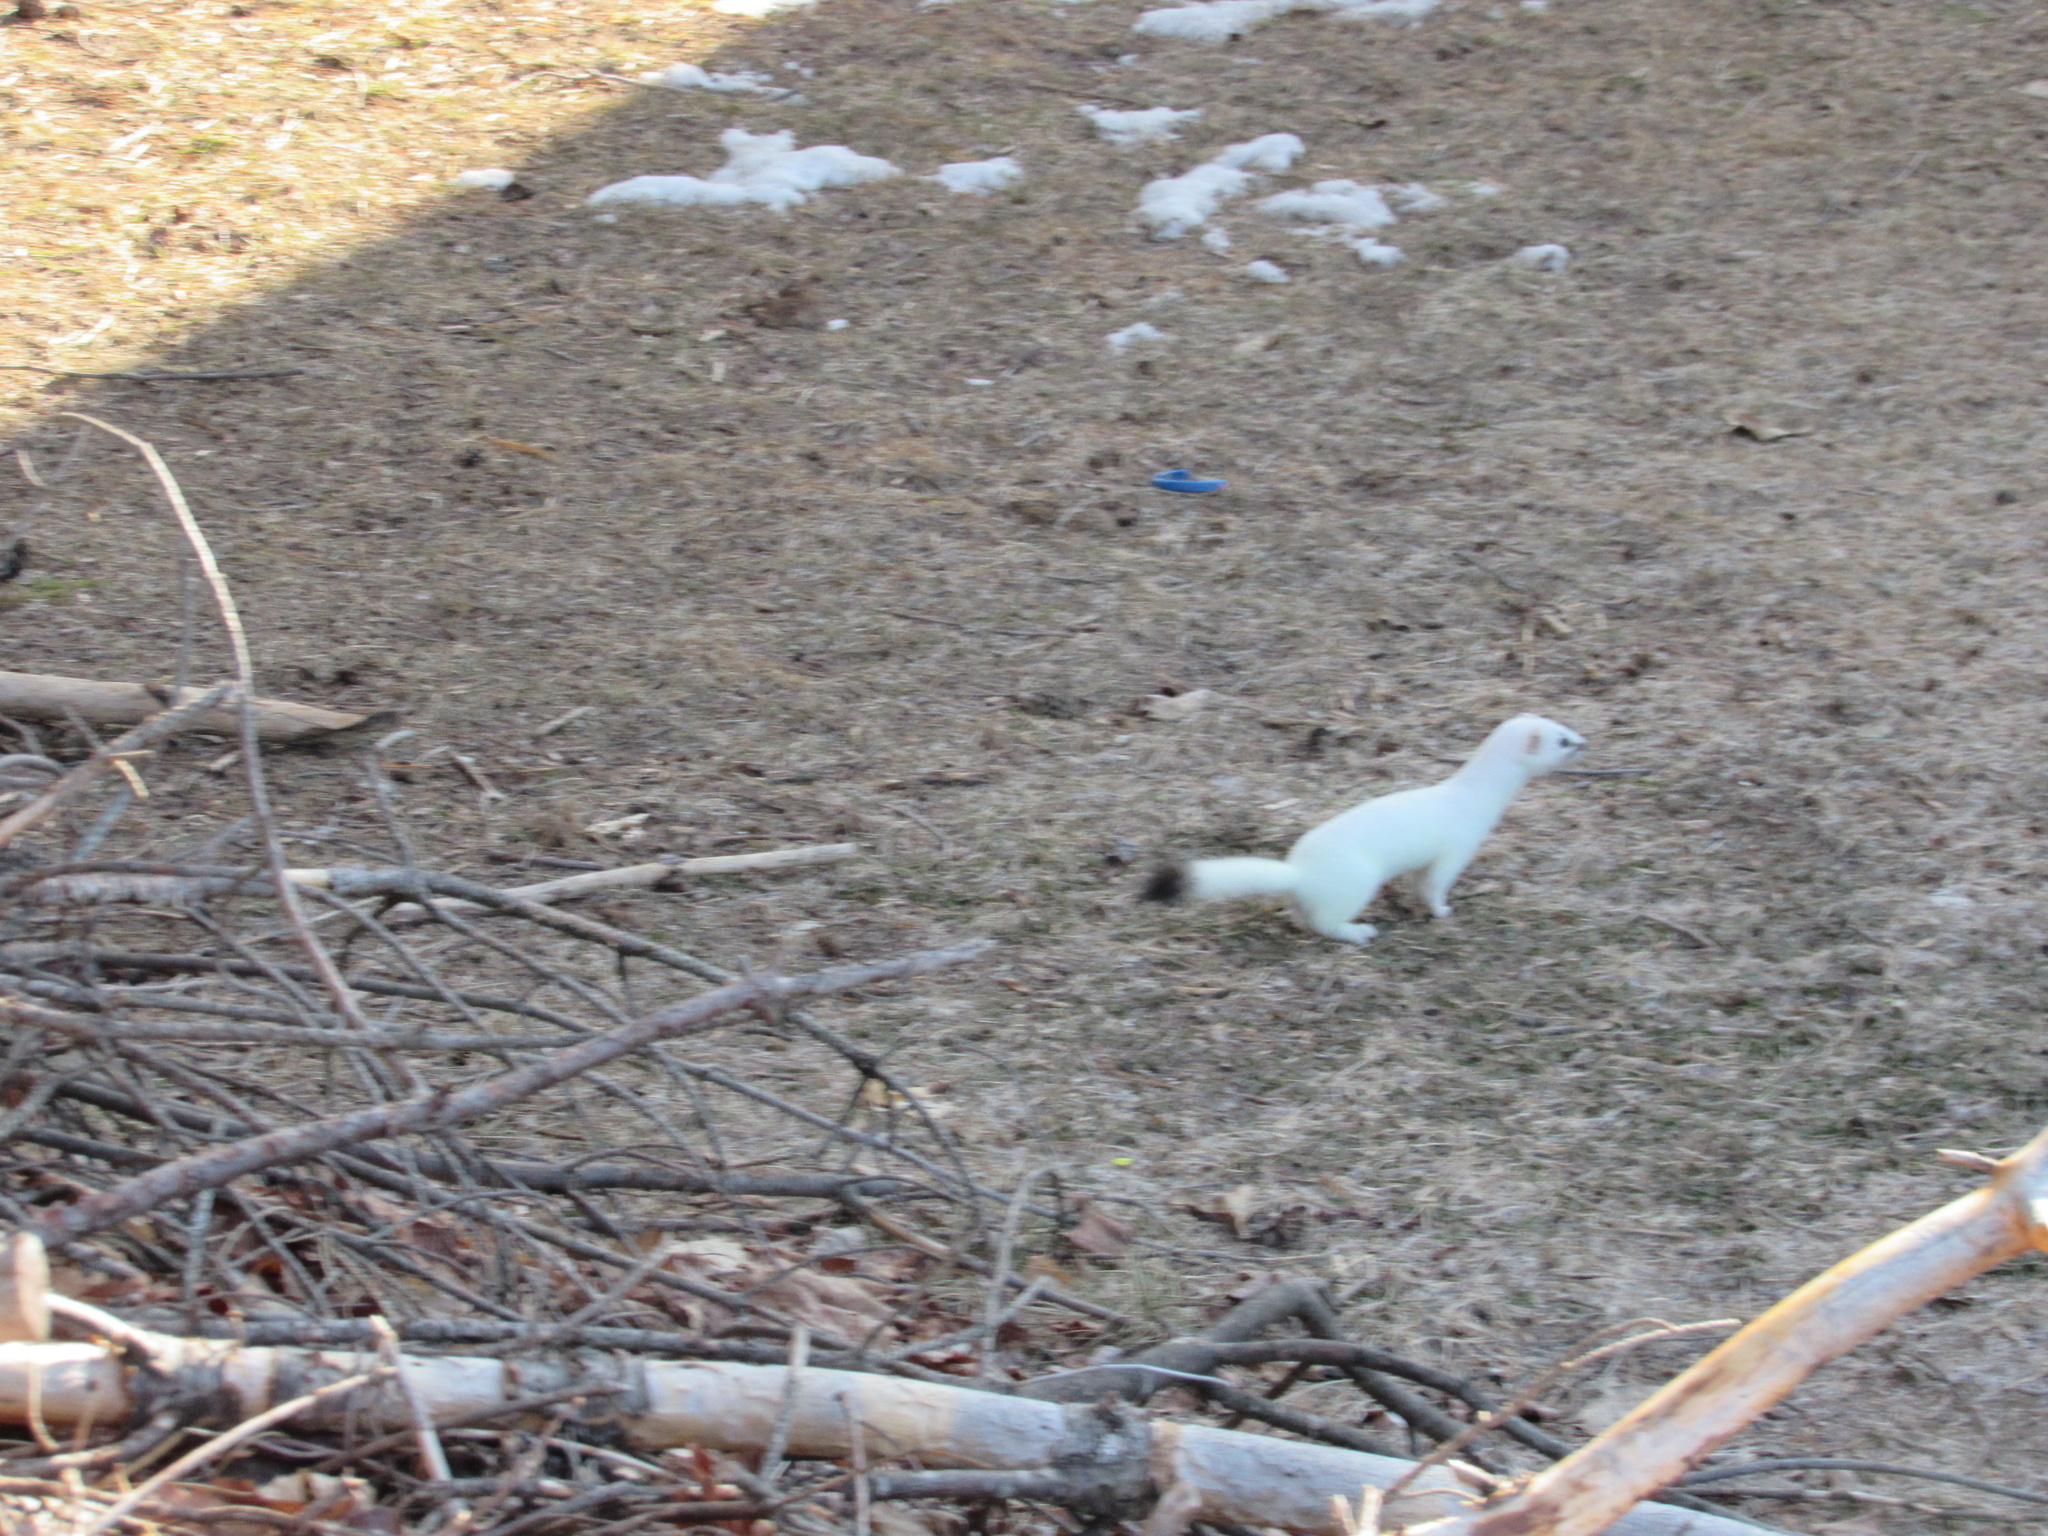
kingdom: Animalia
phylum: Chordata
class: Mammalia
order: Carnivora
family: Mustelidae
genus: Mustela
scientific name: Mustela erminea
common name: Stoat
